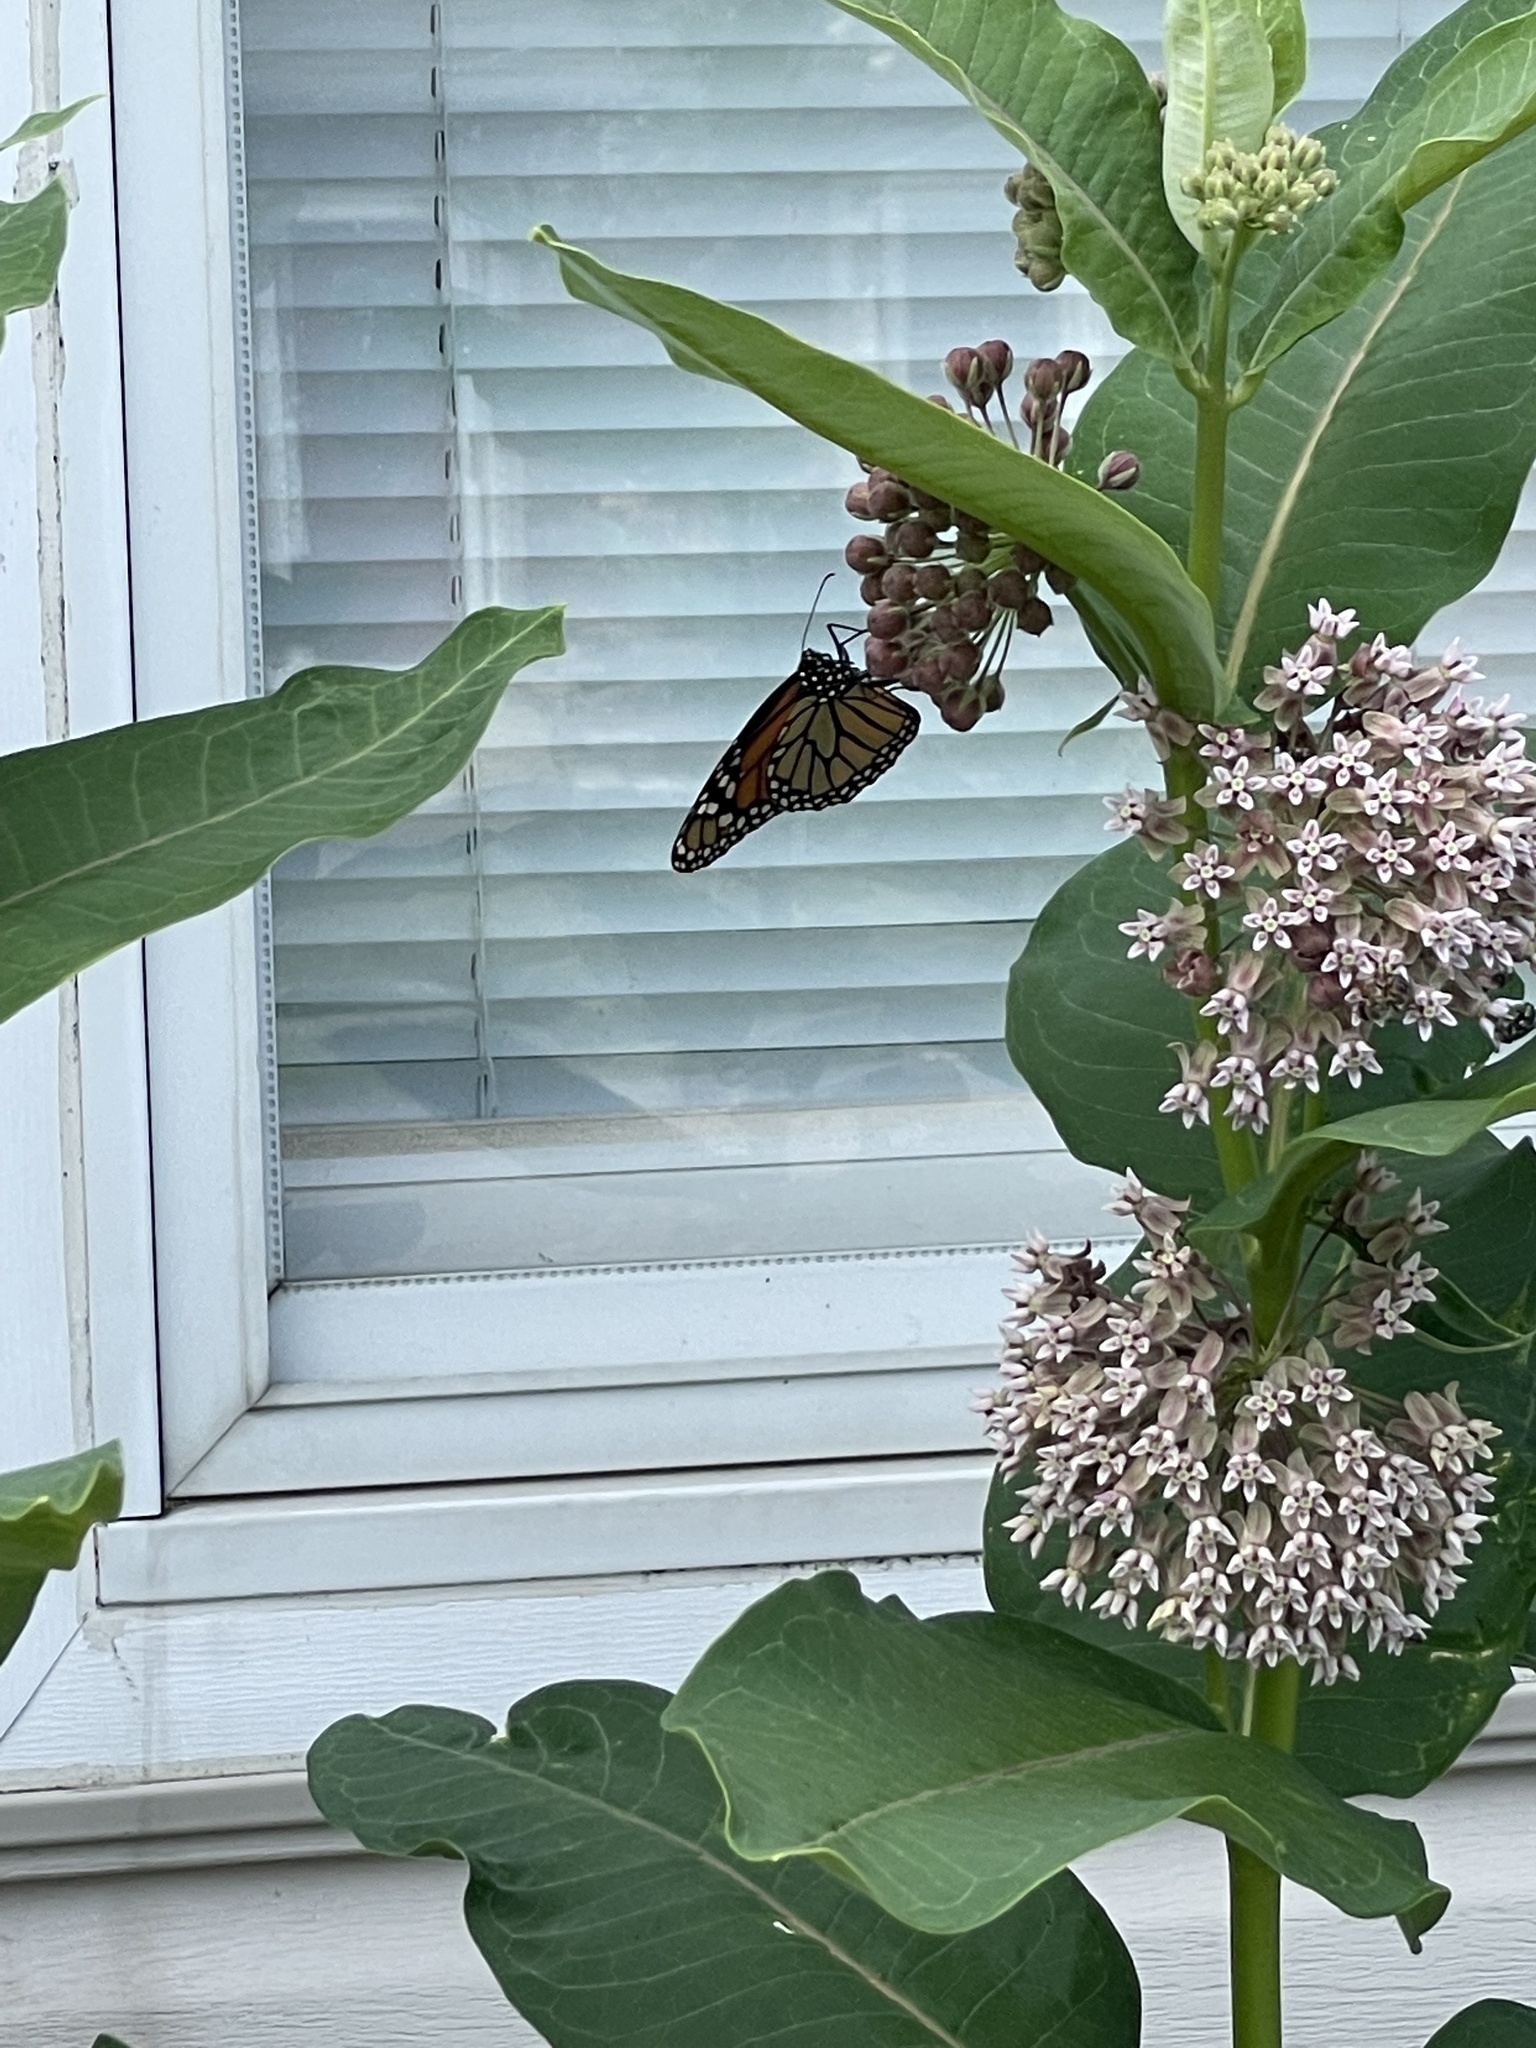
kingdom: Animalia
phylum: Arthropoda
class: Insecta
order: Lepidoptera
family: Nymphalidae
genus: Danaus
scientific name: Danaus plexippus
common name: Monarch
